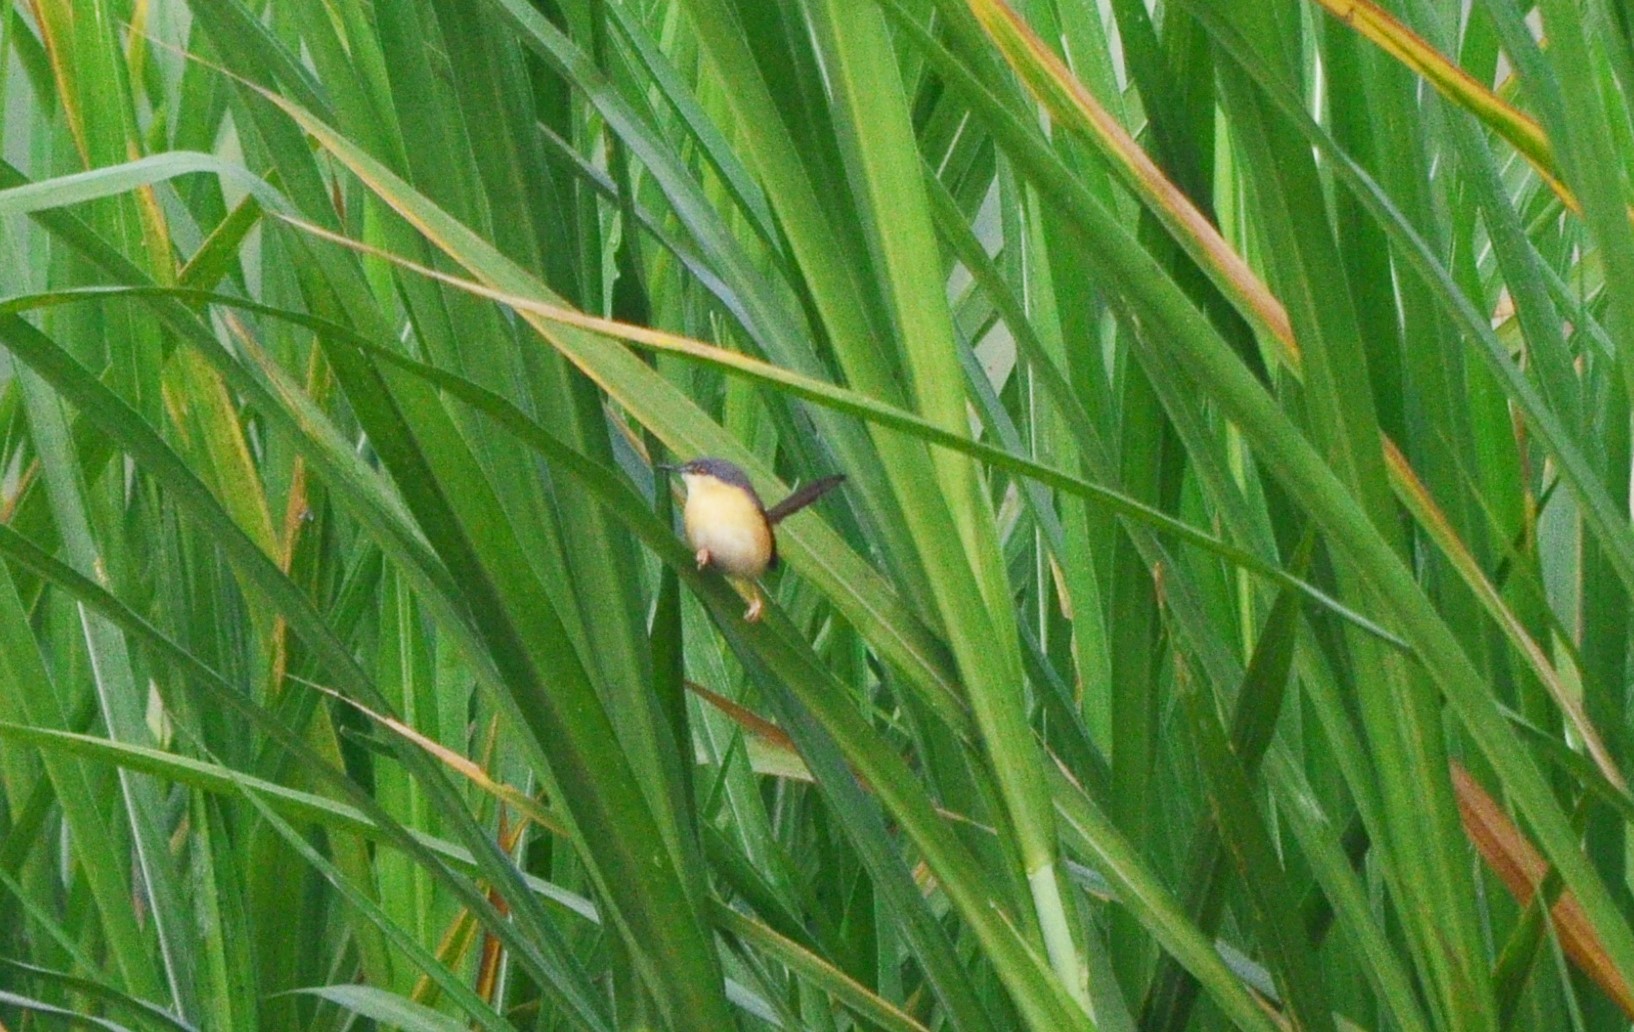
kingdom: Animalia
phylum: Chordata
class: Aves
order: Passeriformes
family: Cisticolidae
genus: Prinia
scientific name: Prinia socialis
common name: Ashy prinia
